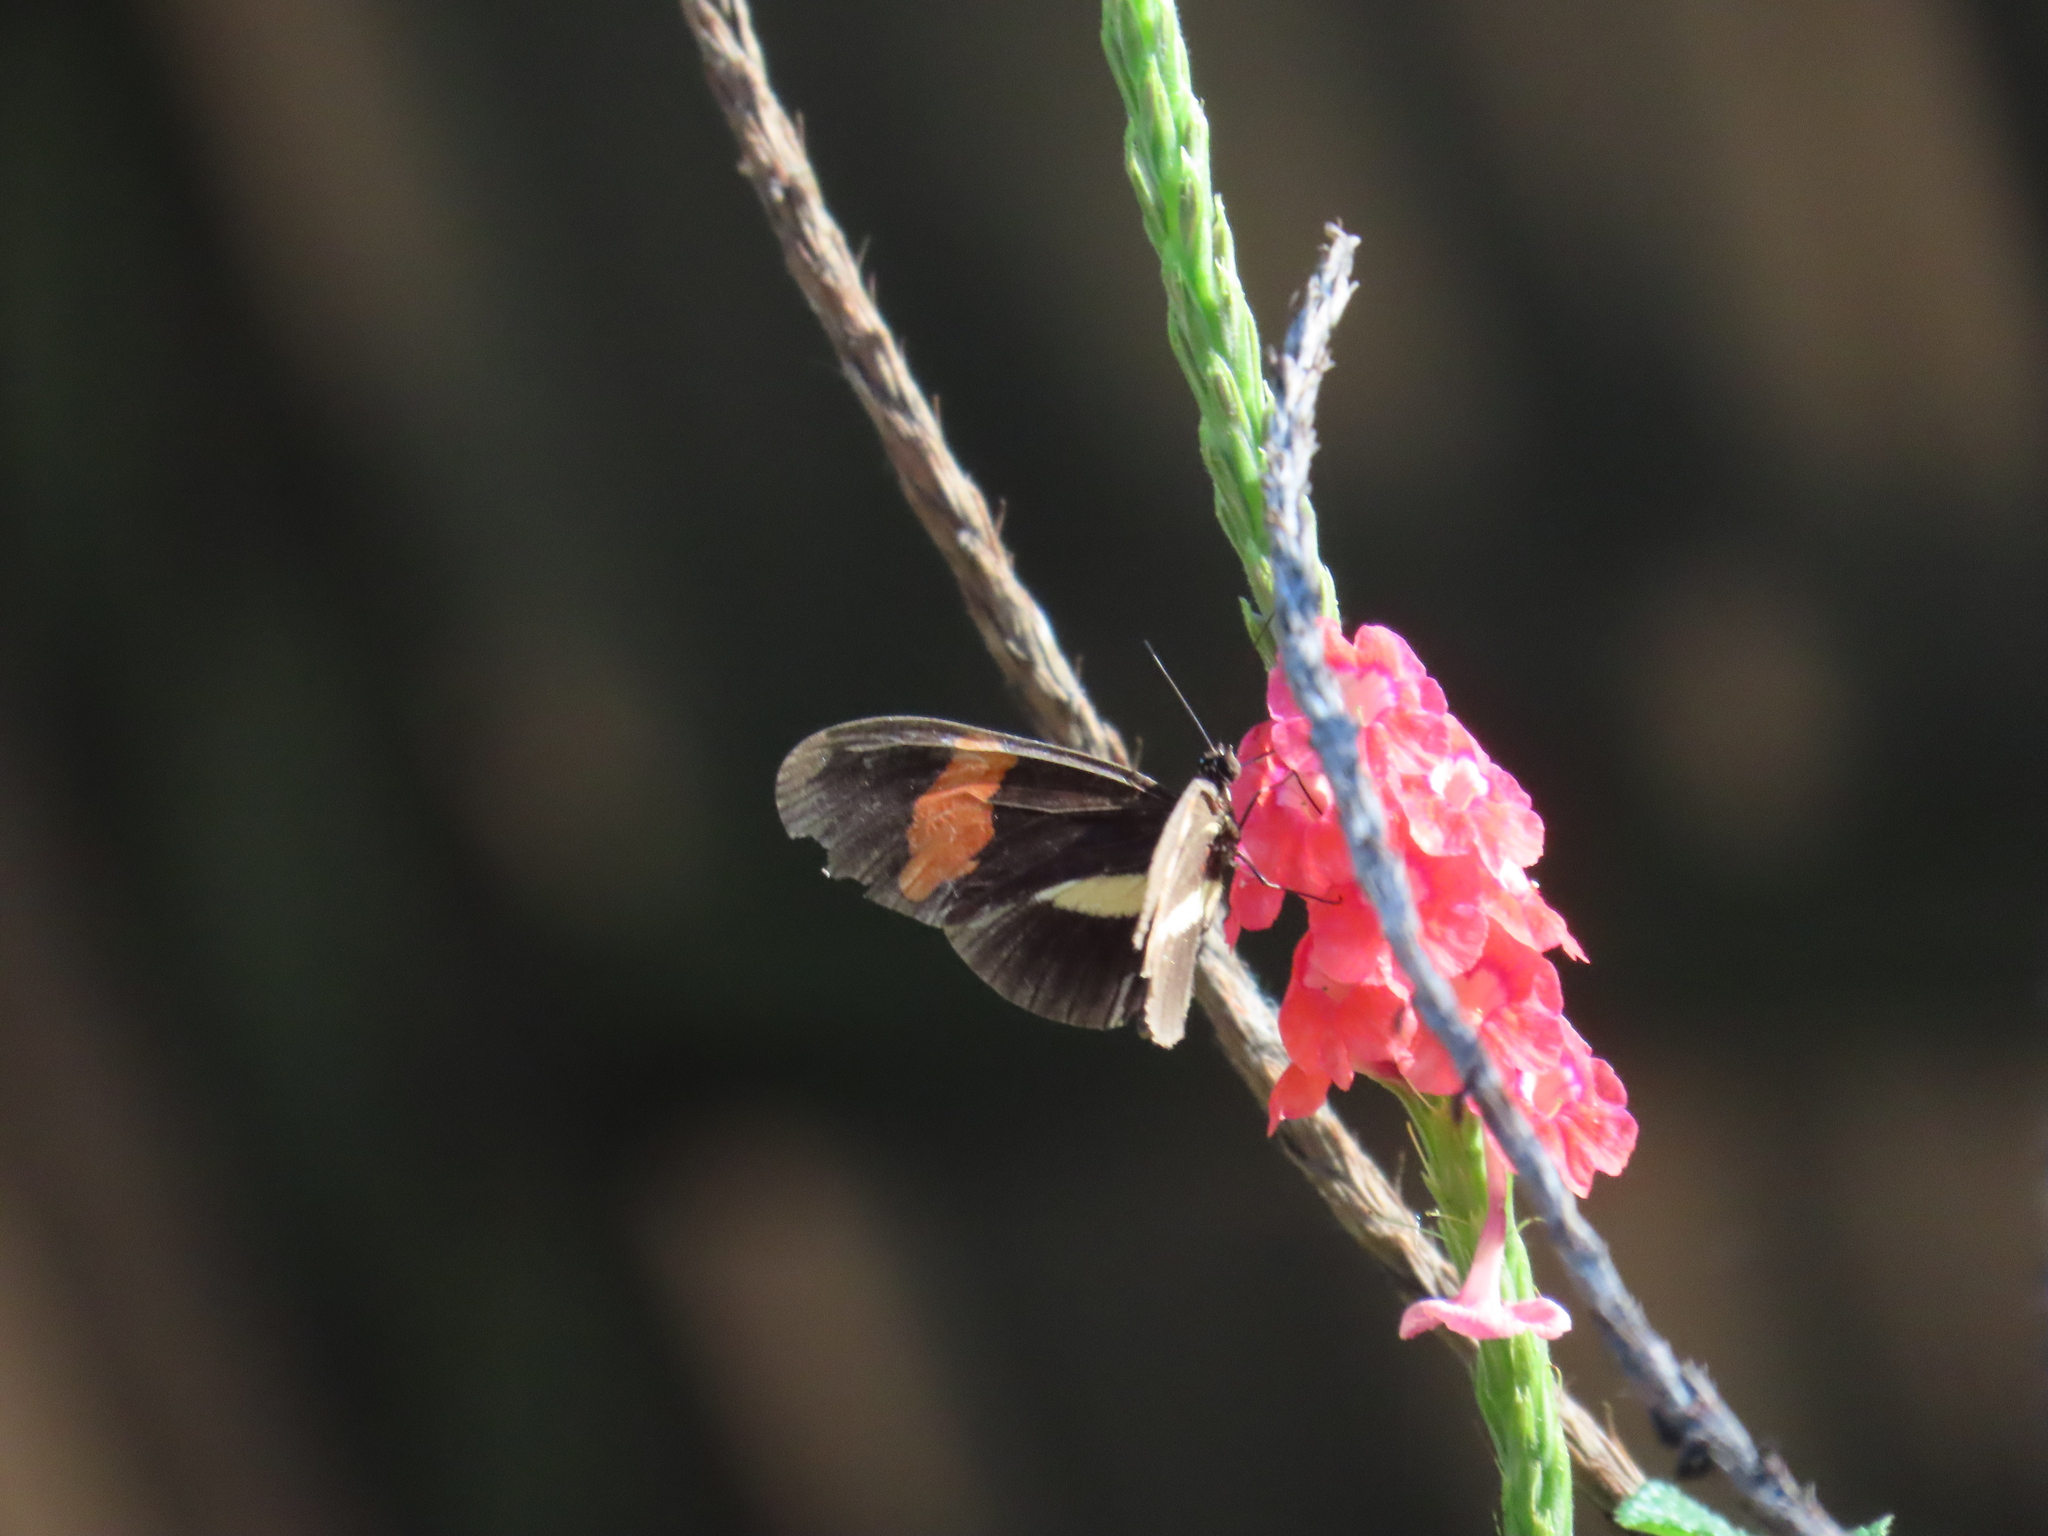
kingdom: Animalia
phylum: Arthropoda
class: Insecta
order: Lepidoptera
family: Nymphalidae
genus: Heliconius
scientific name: Heliconius erato
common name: Common patch longwing
